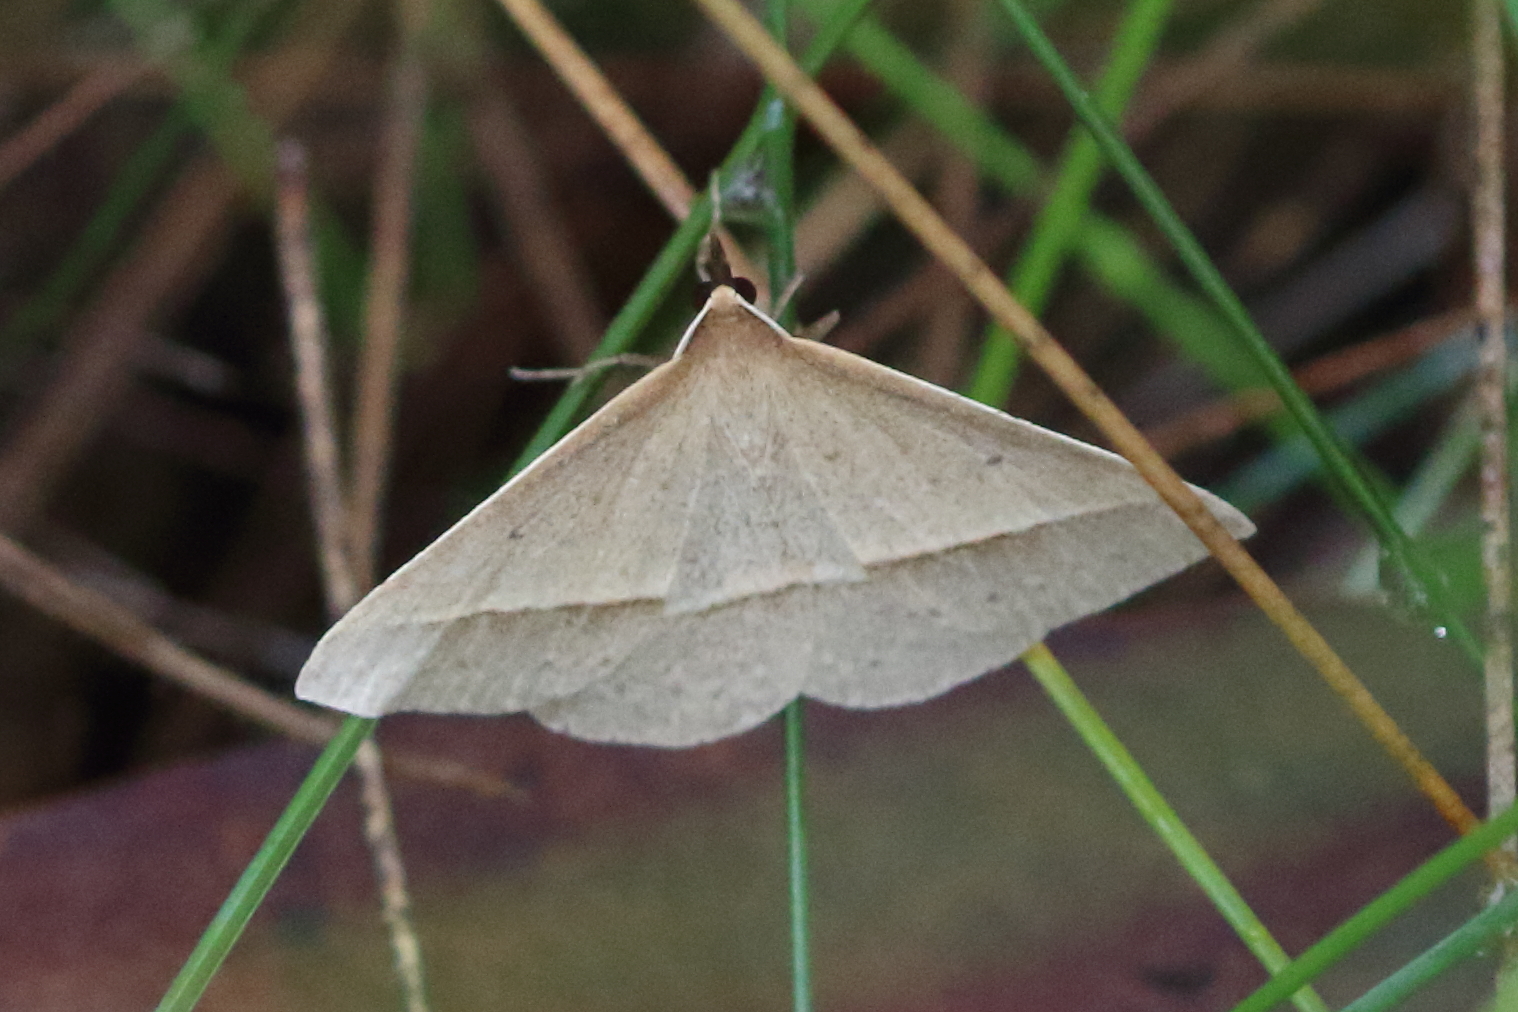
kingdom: Animalia
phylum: Arthropoda
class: Insecta
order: Lepidoptera
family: Geometridae
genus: Epidesmia
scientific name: Epidesmia tryxaria
